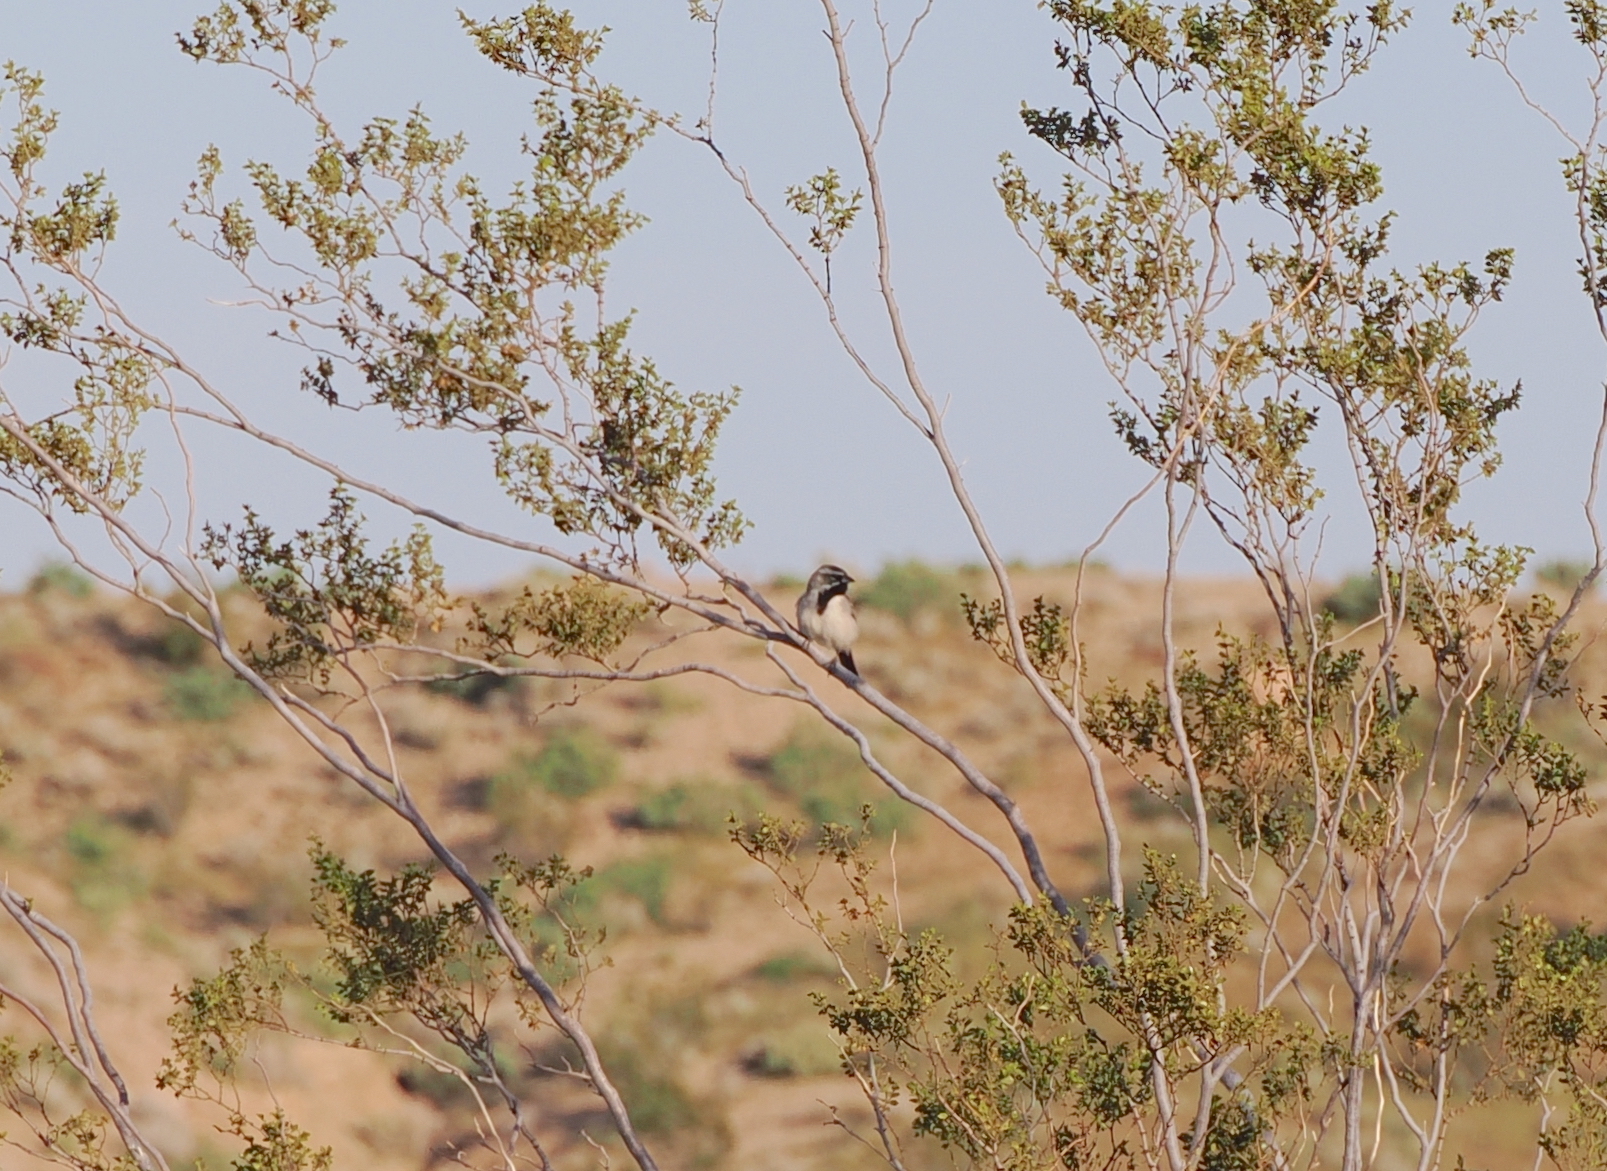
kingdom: Animalia
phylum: Chordata
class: Aves
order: Passeriformes
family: Passerellidae
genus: Amphispiza
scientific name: Amphispiza bilineata
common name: Black-throated sparrow
